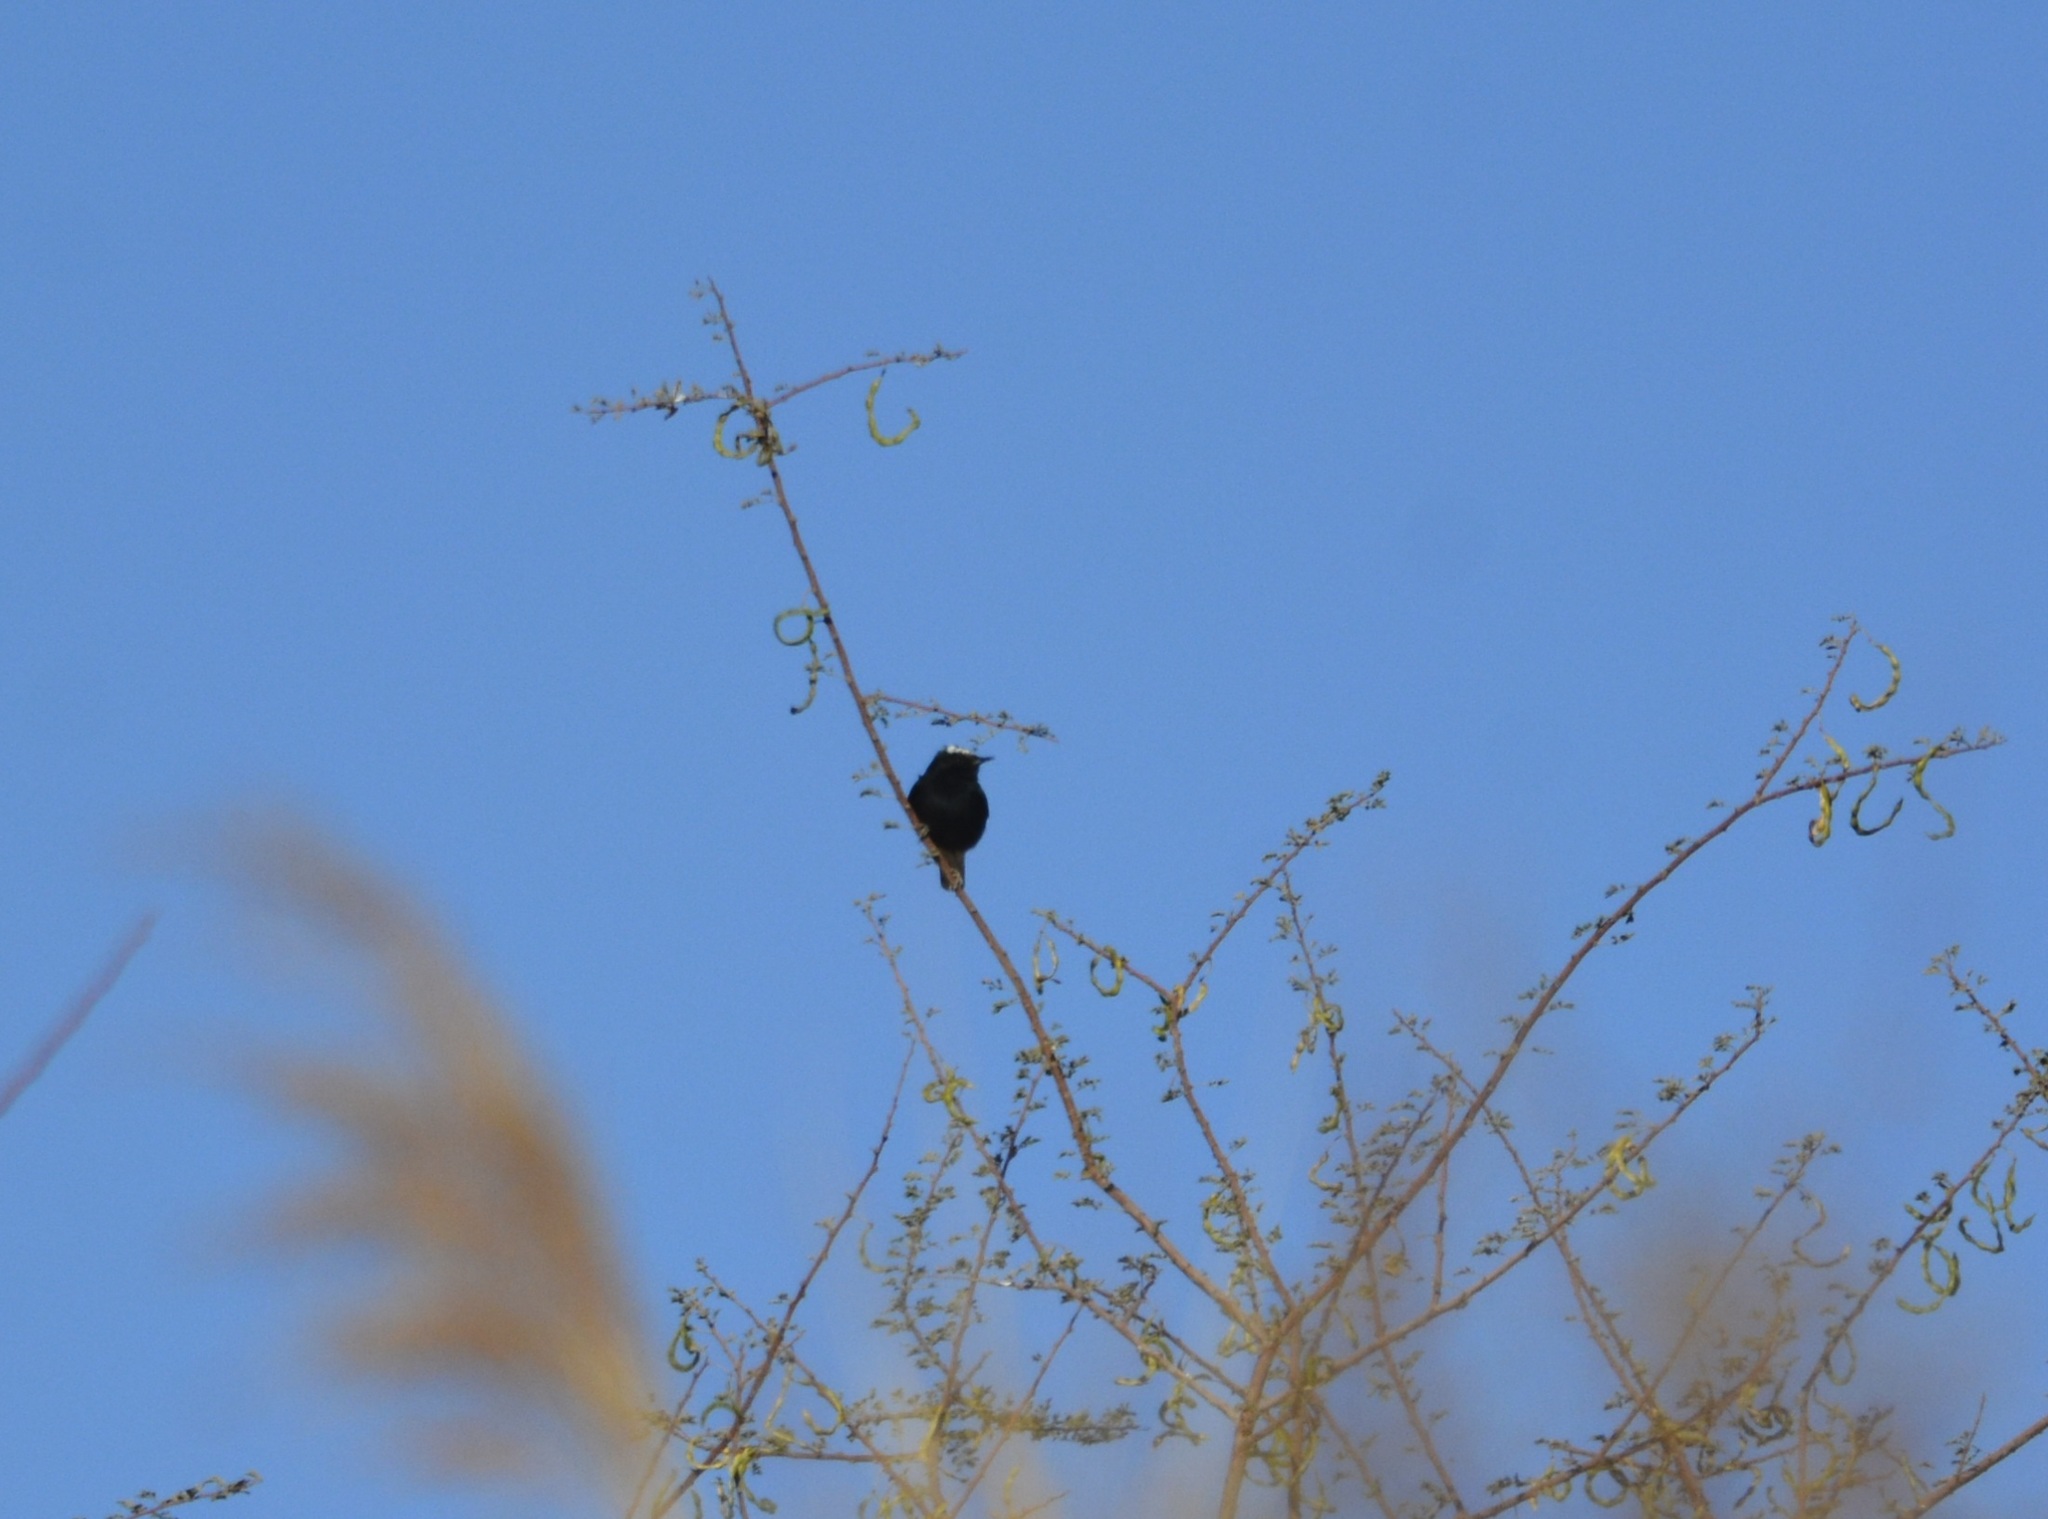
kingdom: Animalia
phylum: Chordata
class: Aves
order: Passeriformes
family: Muscicapidae
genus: Oenanthe
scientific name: Oenanthe leucopyga
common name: White-crowned wheatear
